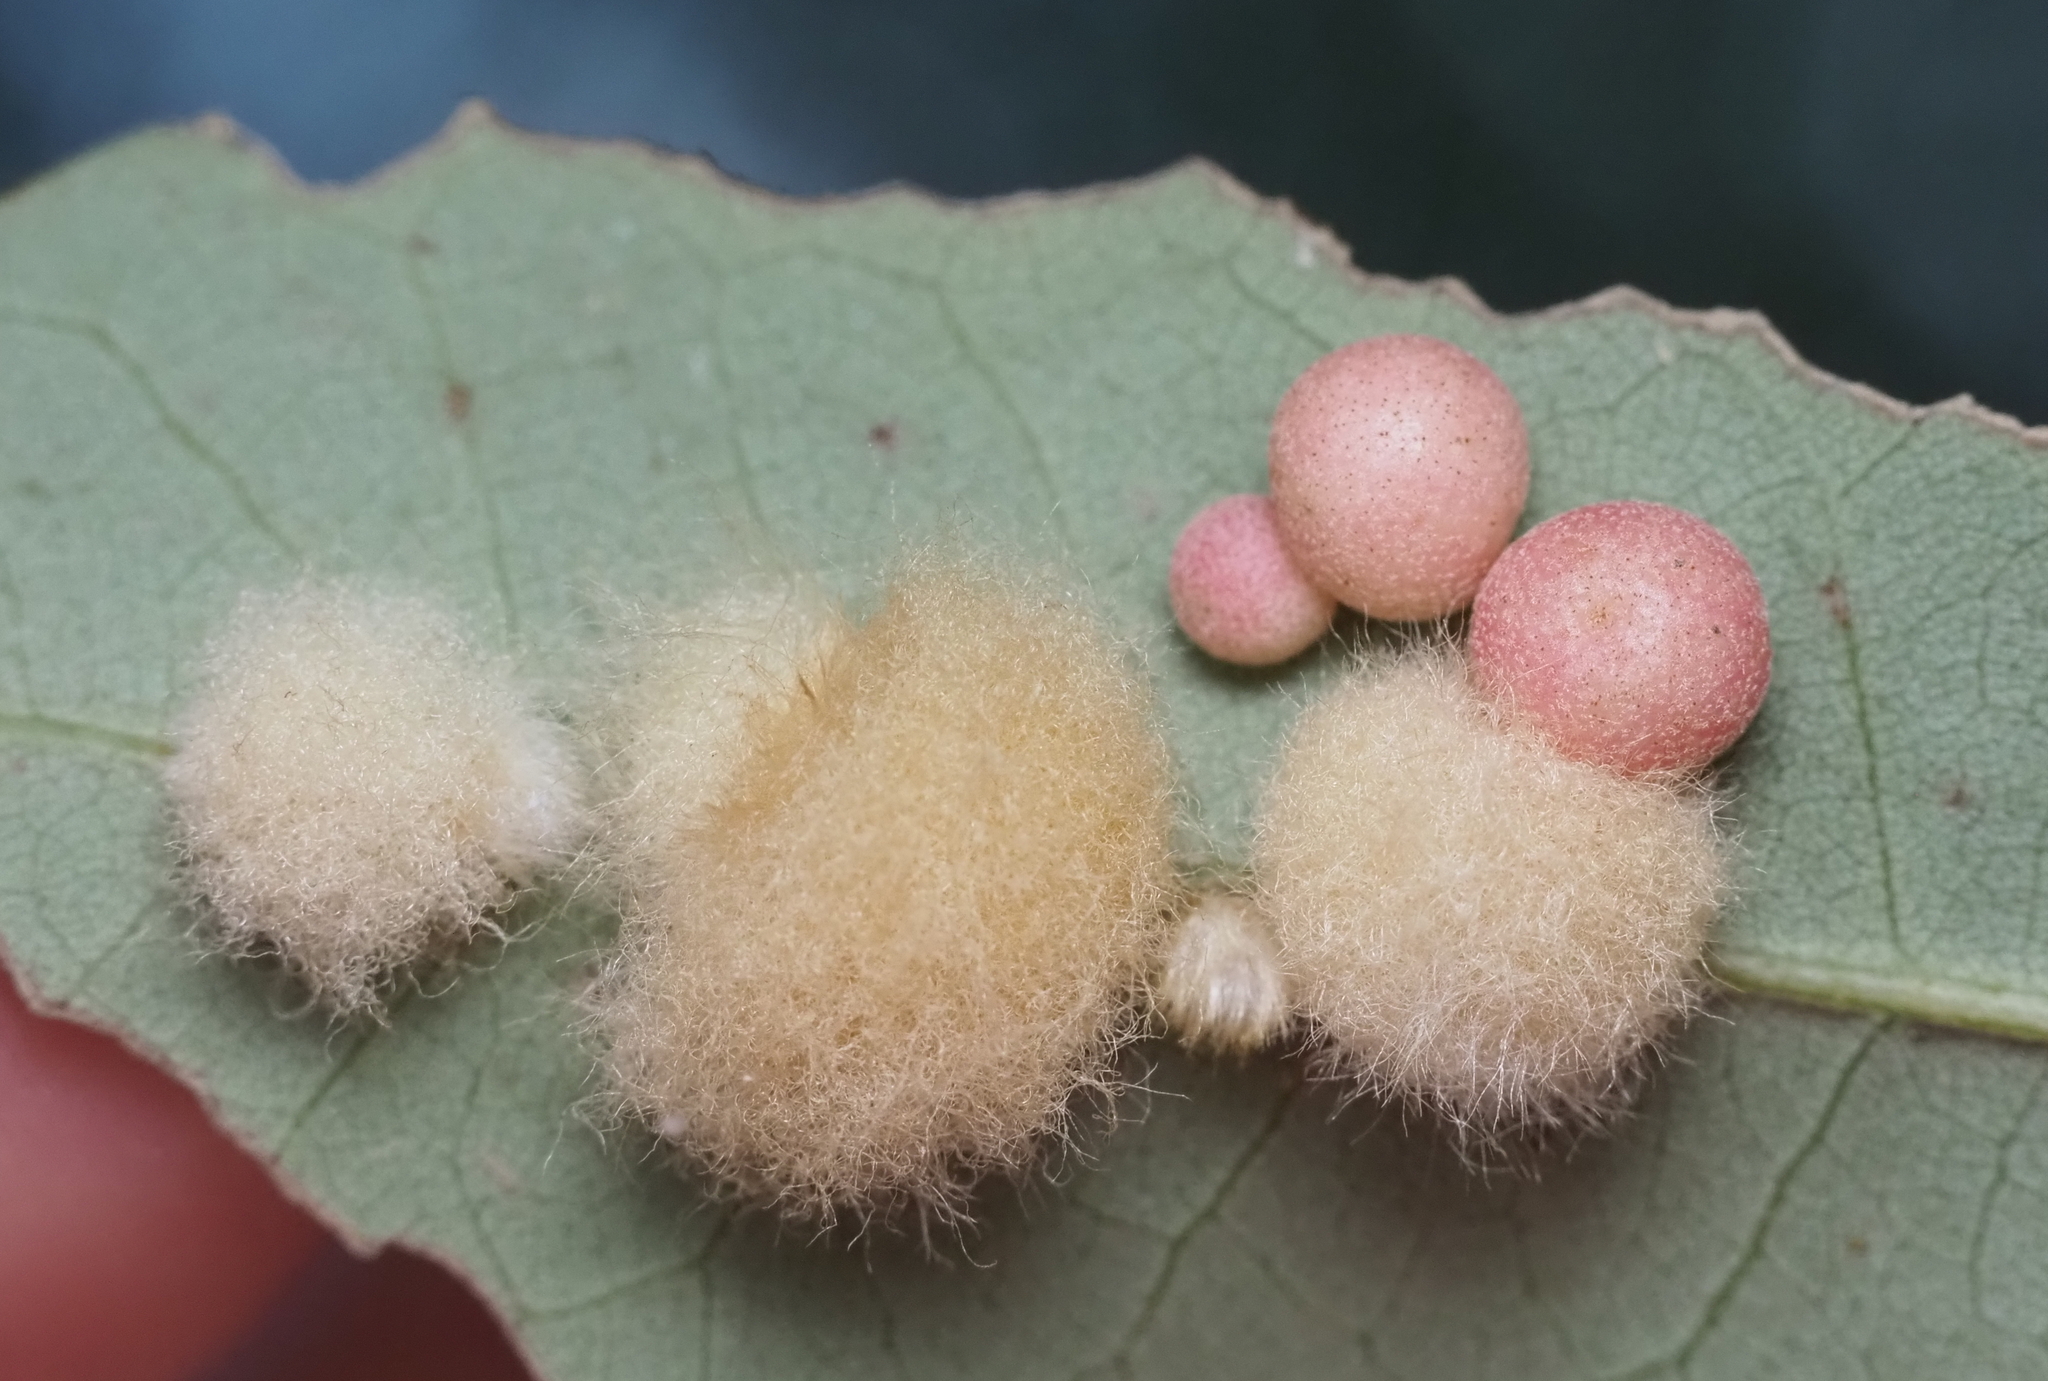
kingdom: Animalia
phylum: Arthropoda
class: Insecta
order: Hymenoptera
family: Cynipidae
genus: Andricus
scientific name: Andricus Druon quercuslanigerum
